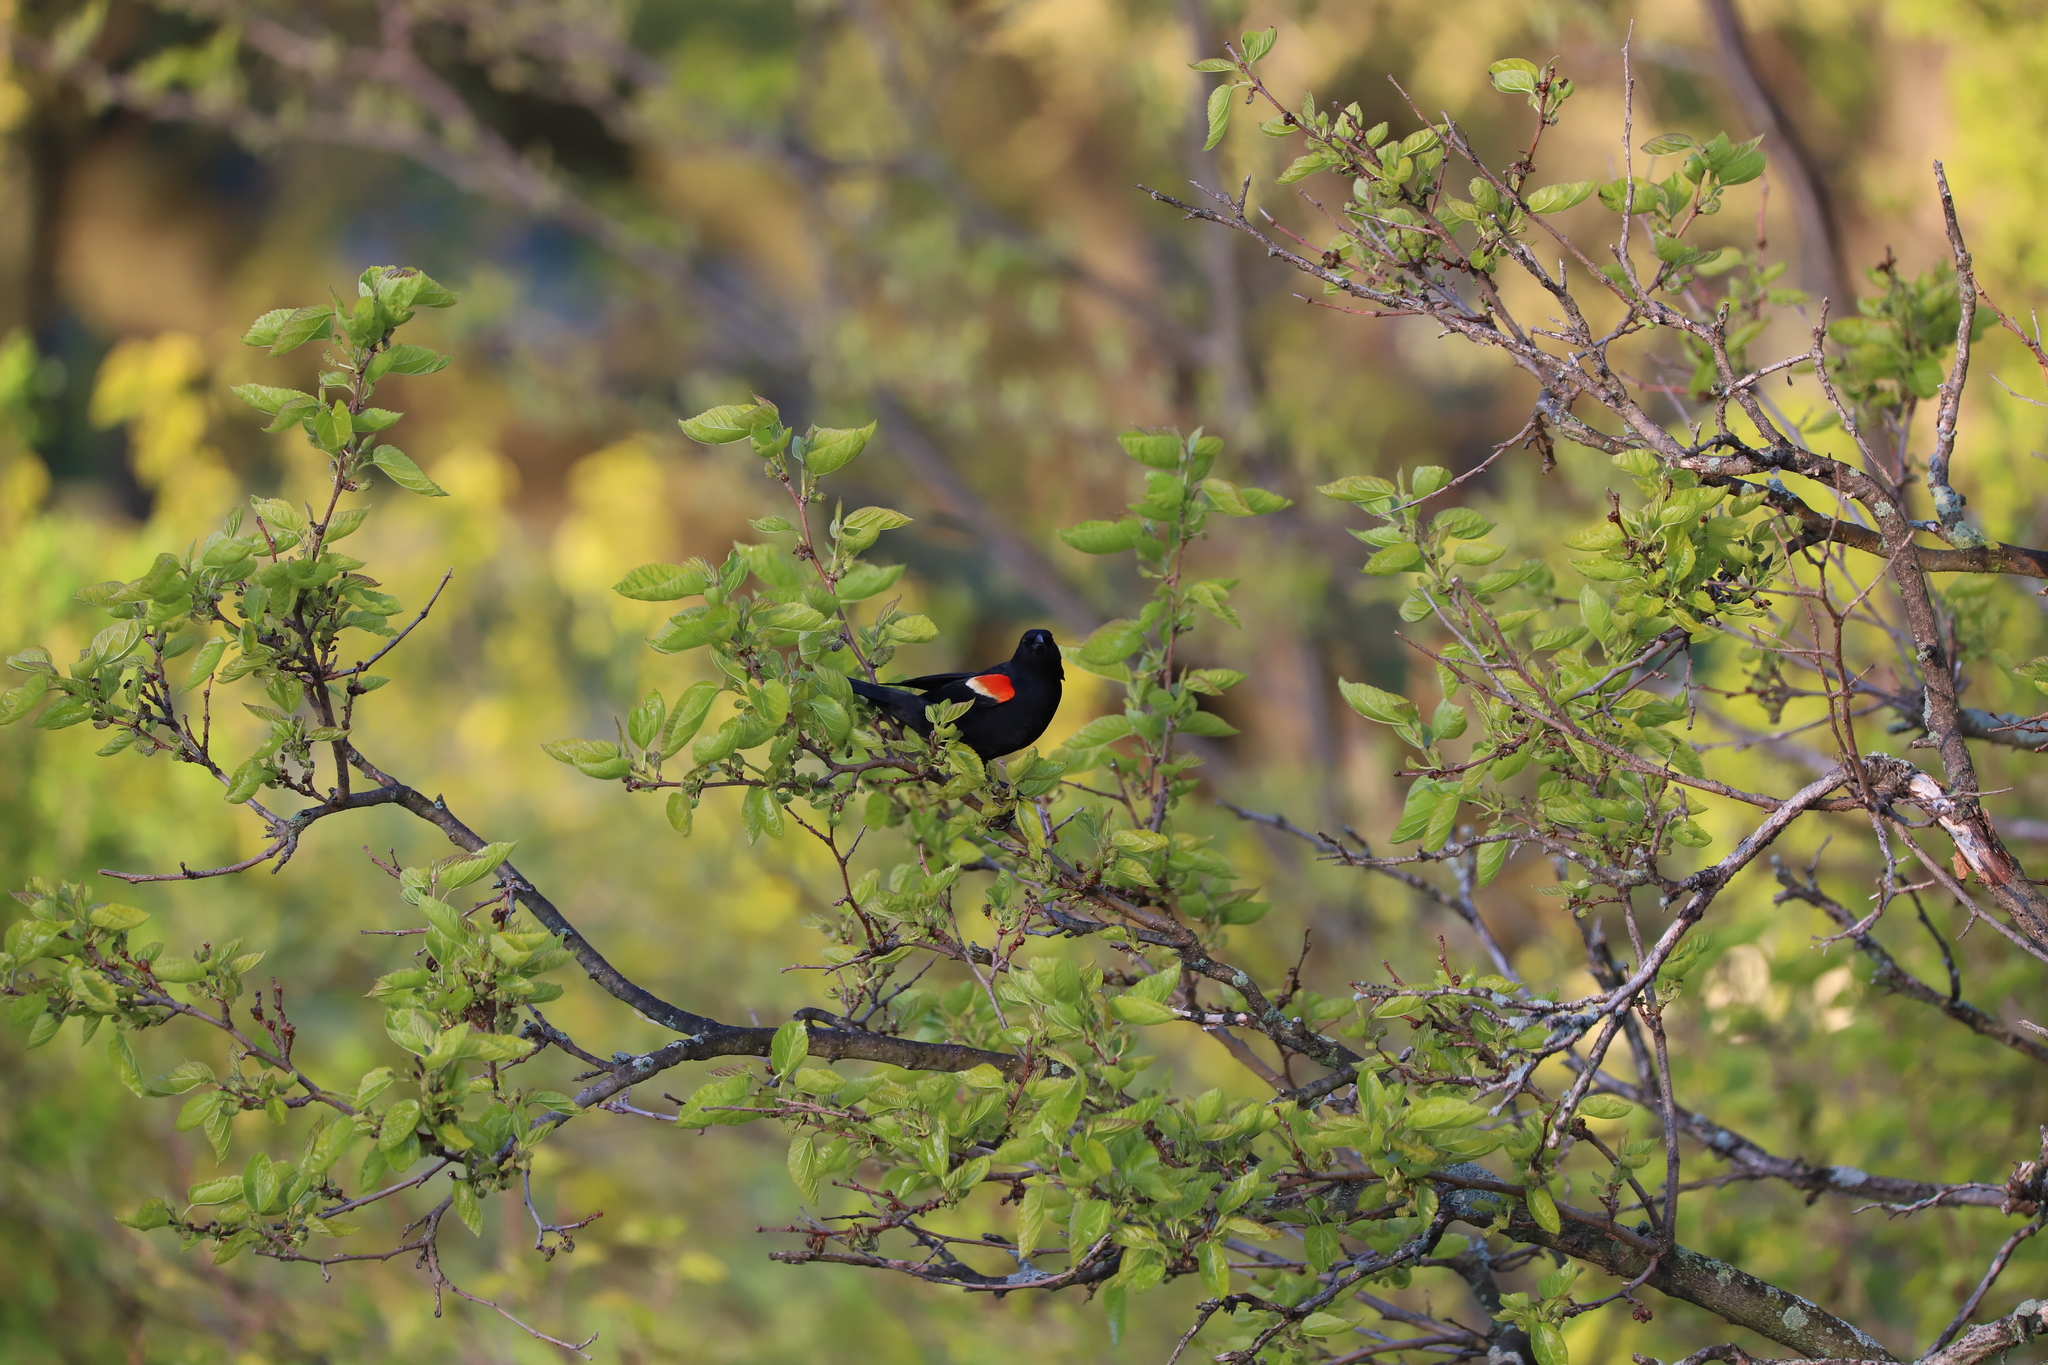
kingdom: Animalia
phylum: Chordata
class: Aves
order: Passeriformes
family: Icteridae
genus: Agelaius
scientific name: Agelaius phoeniceus
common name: Red-winged blackbird
